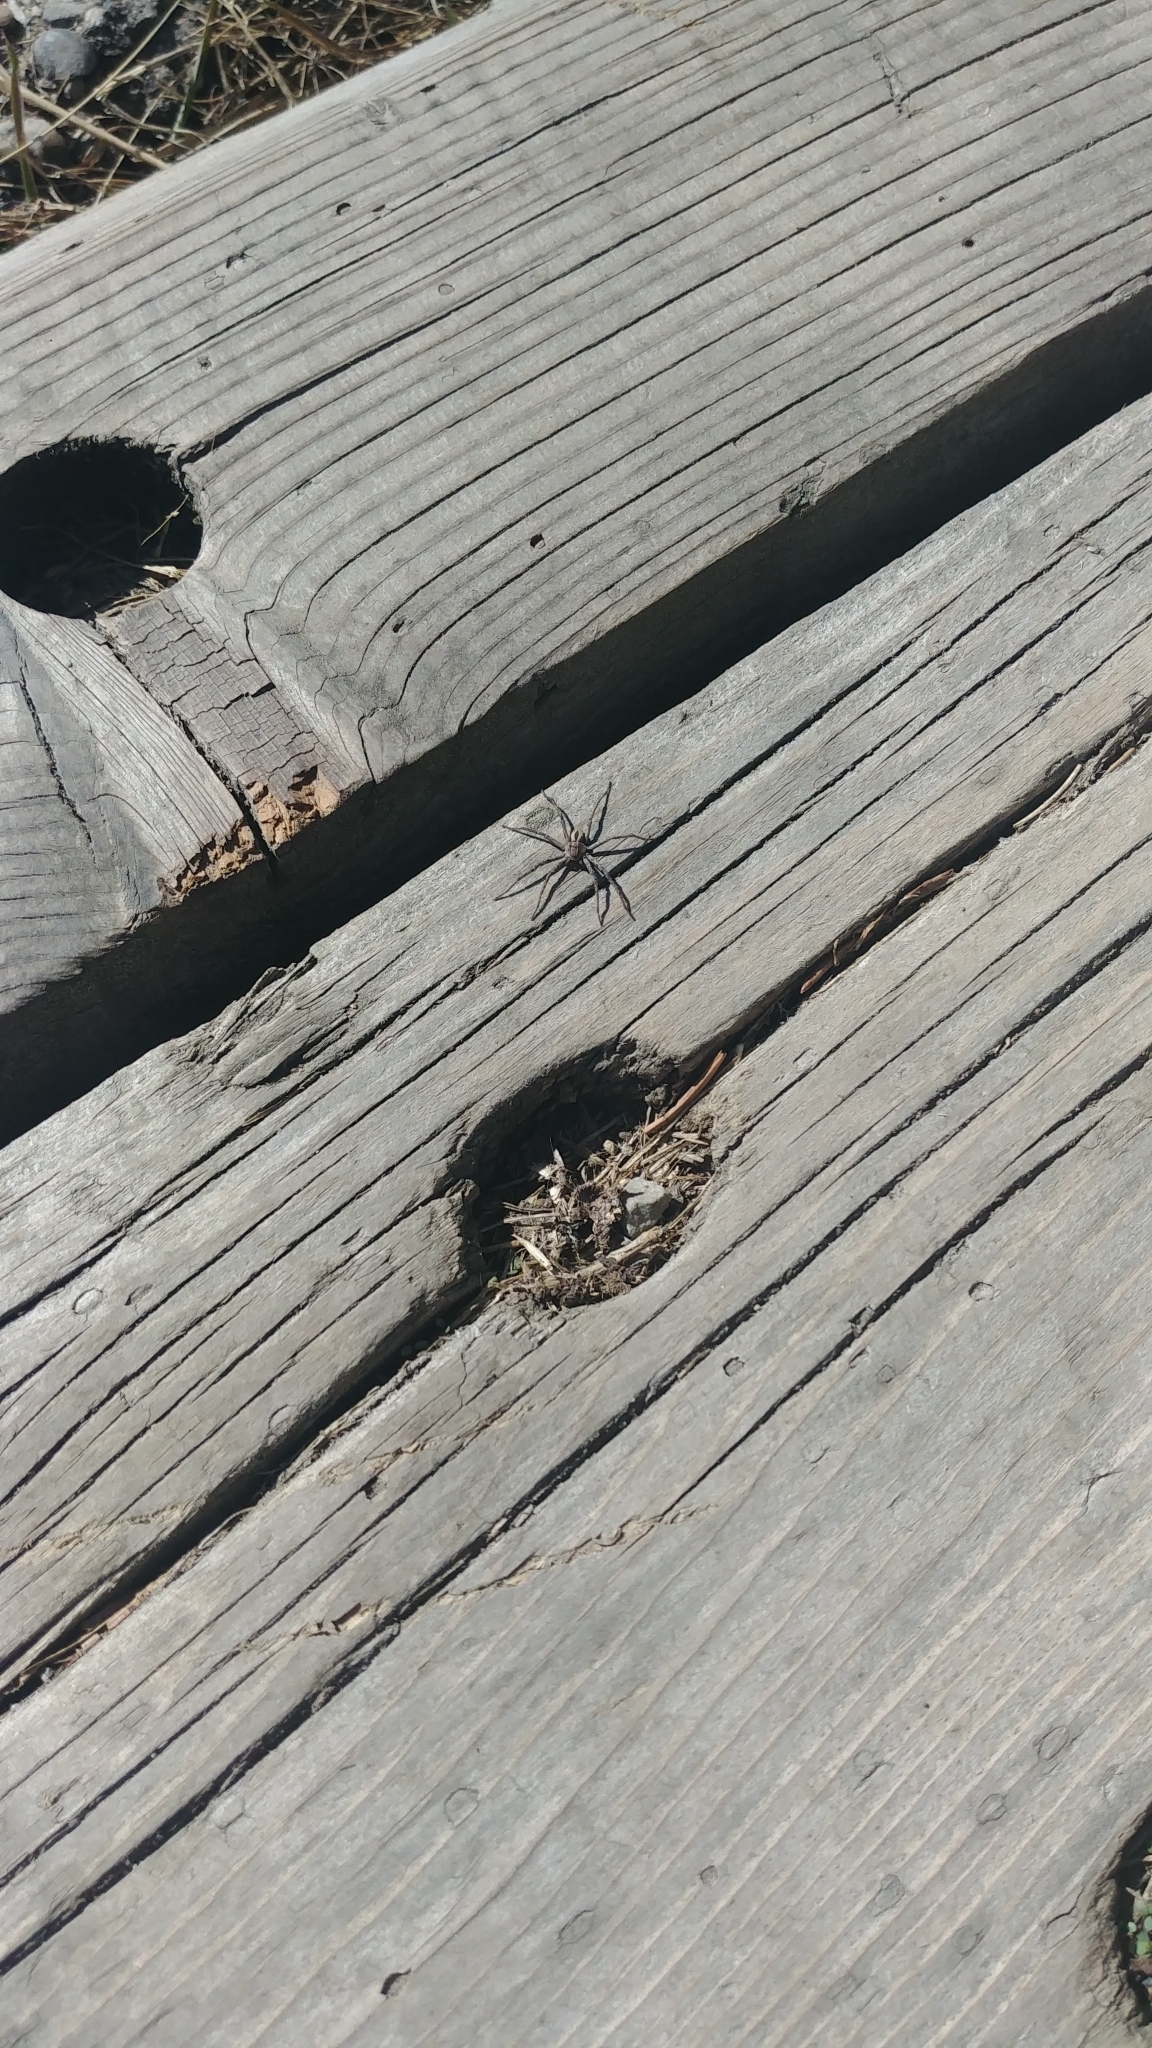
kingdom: Animalia
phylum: Arthropoda
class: Arachnida
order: Araneae
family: Philodromidae
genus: Thanatus
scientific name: Thanatus formicinus
